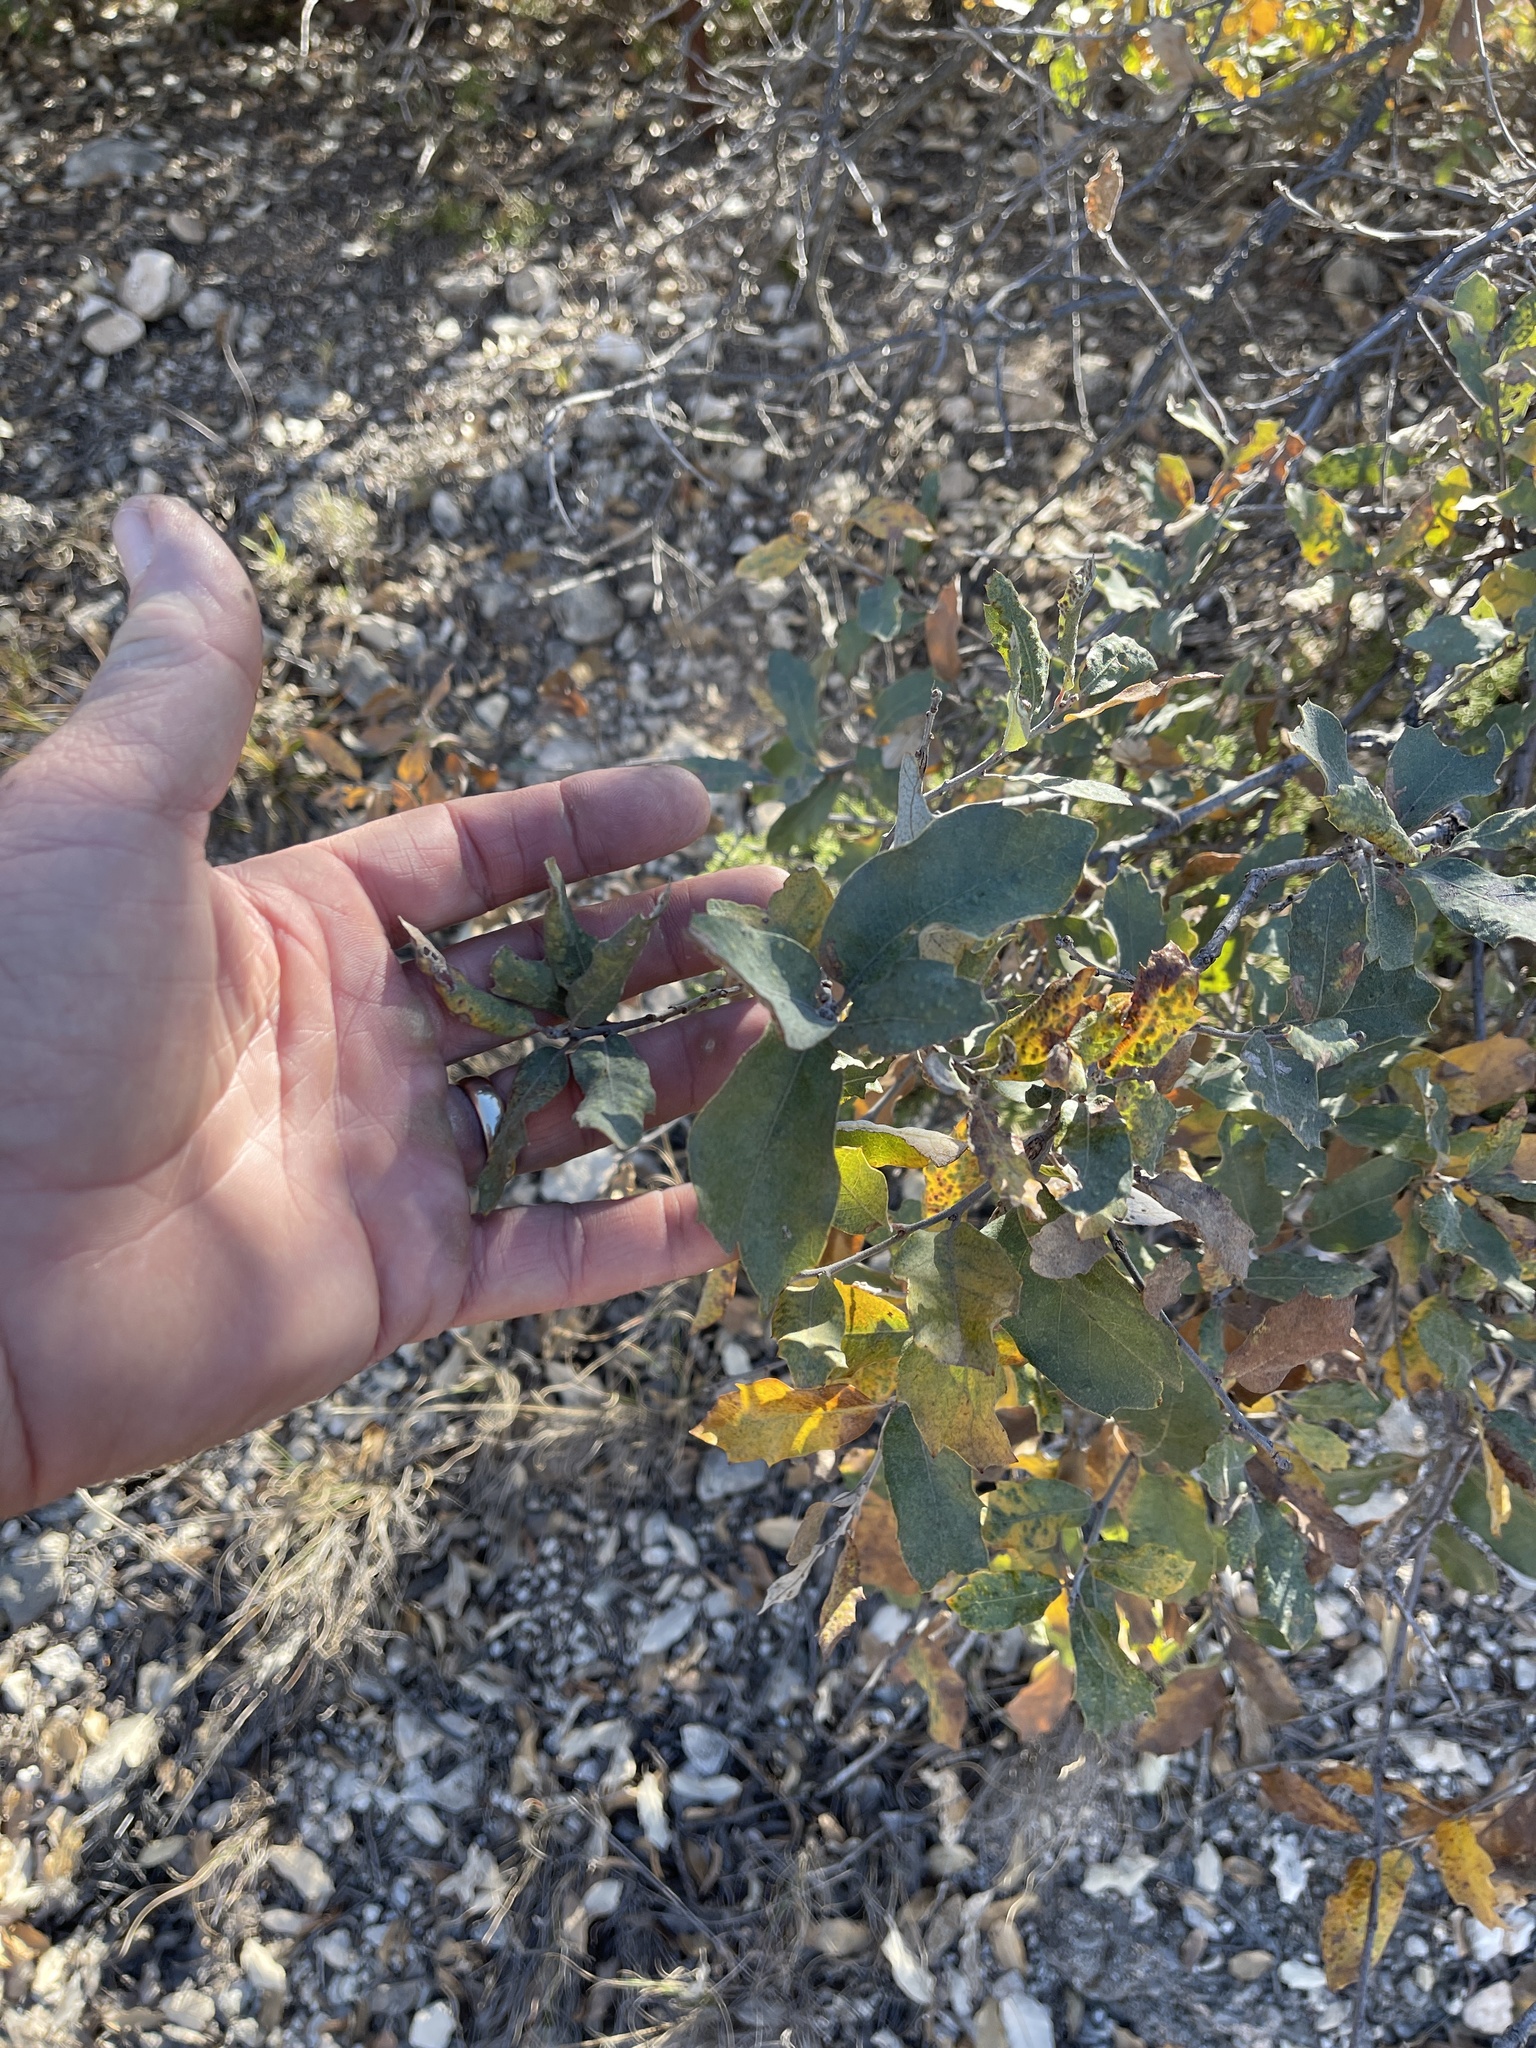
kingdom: Plantae
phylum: Tracheophyta
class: Magnoliopsida
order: Fagales
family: Fagaceae
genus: Quercus
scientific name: Quercus mohriana
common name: Mohr oak
